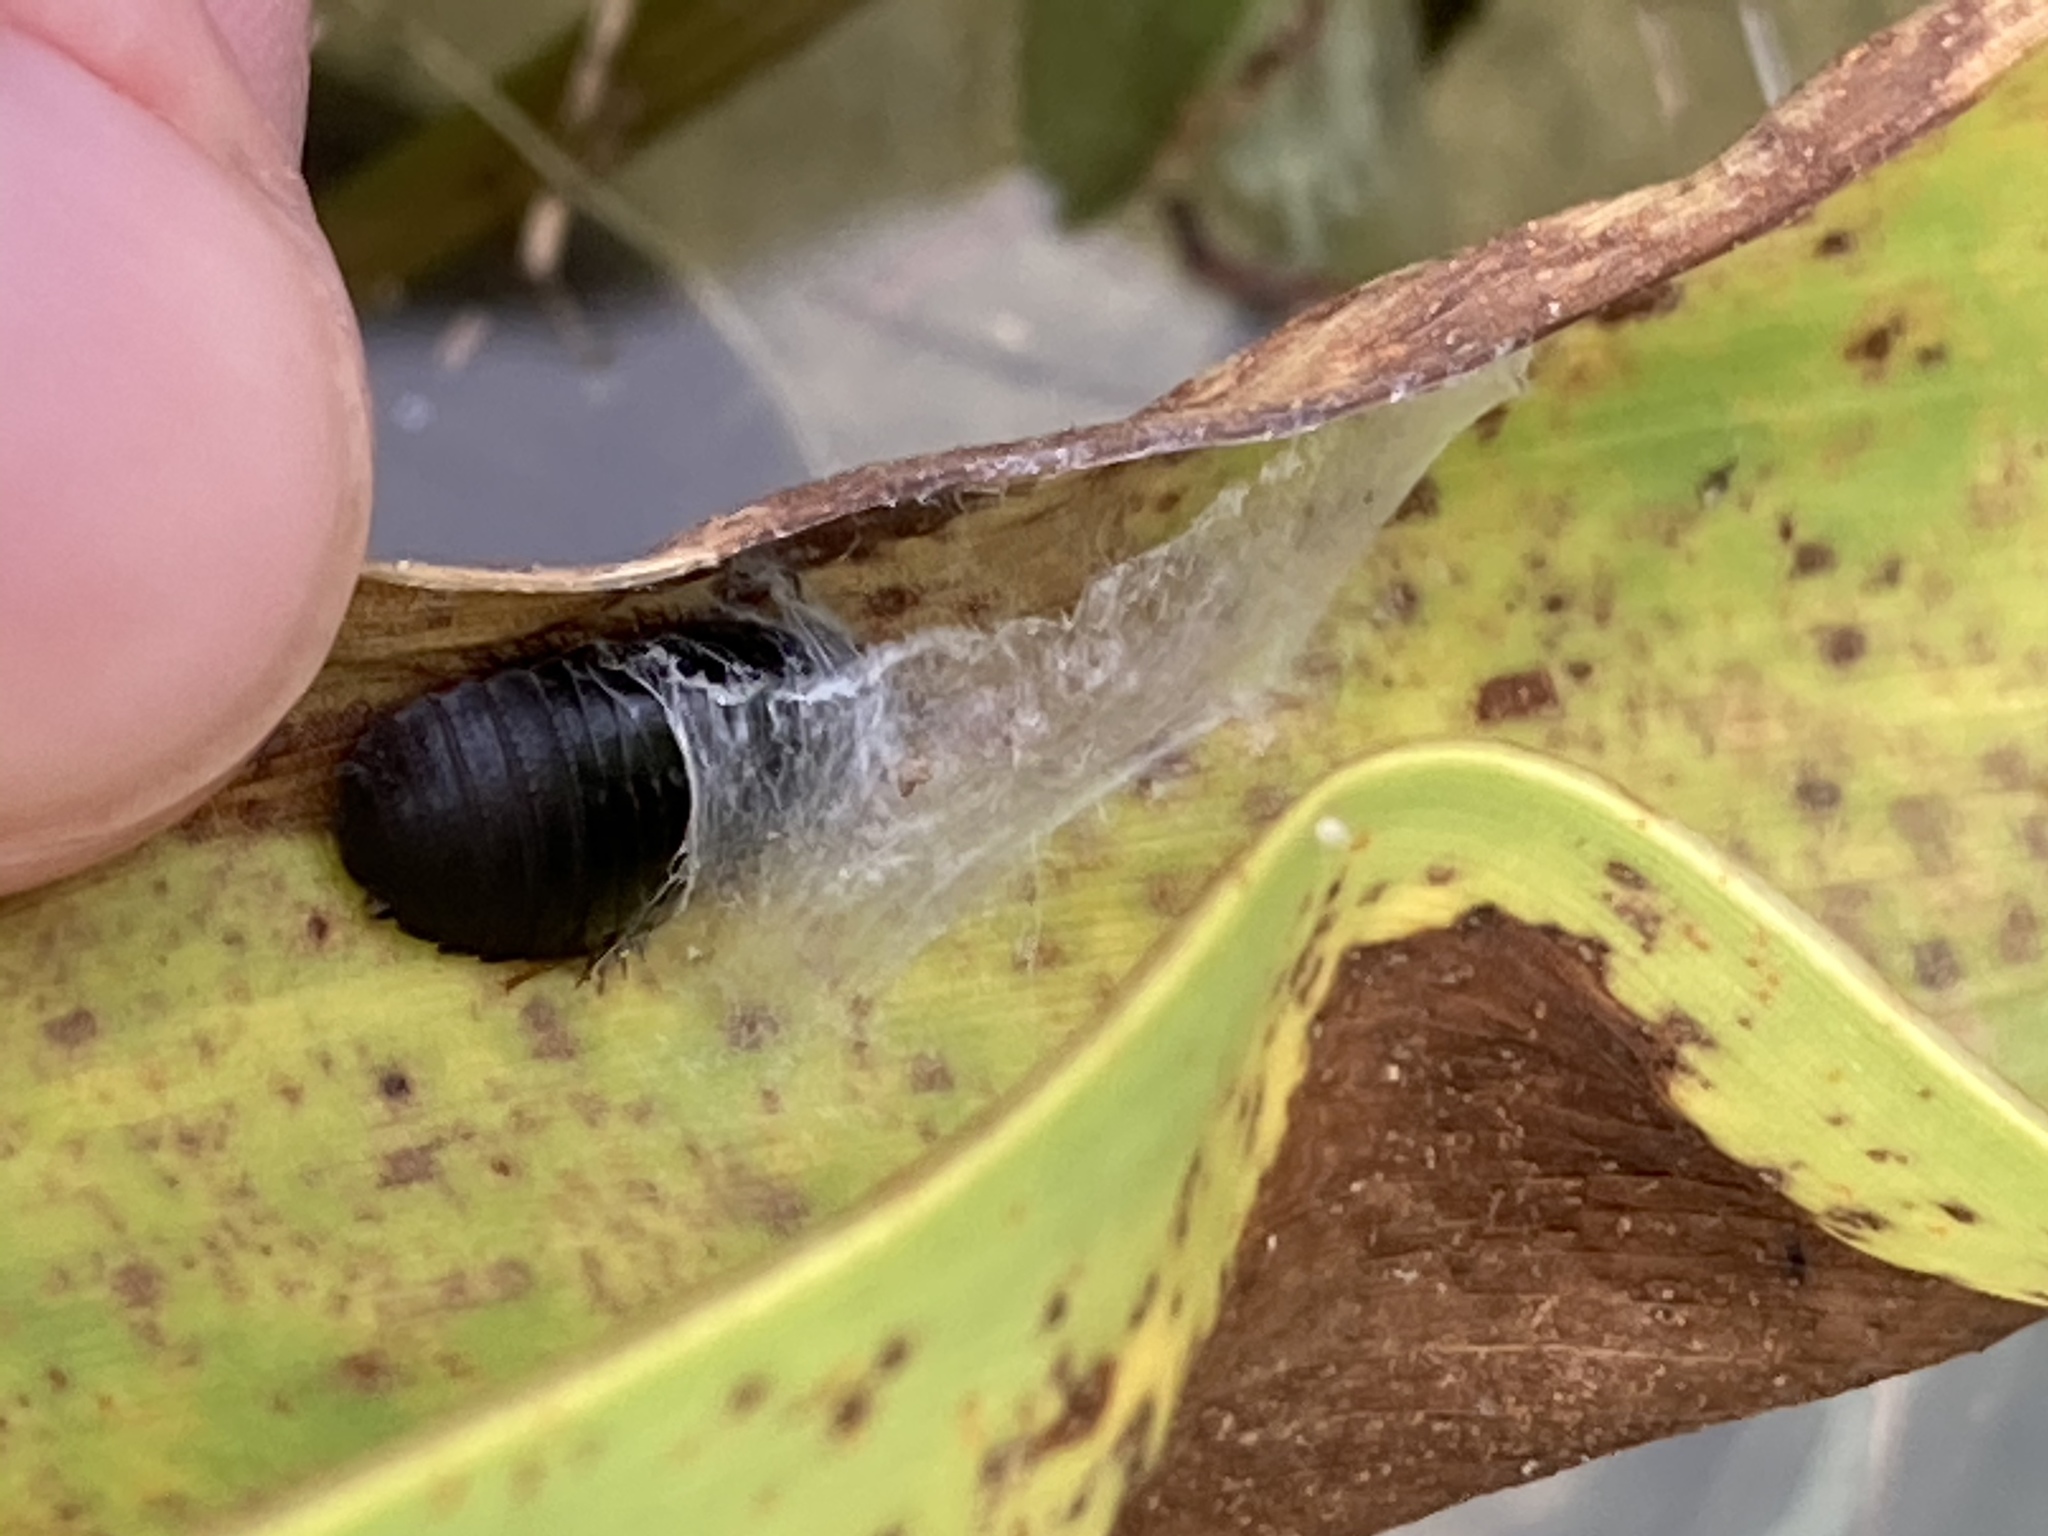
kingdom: Animalia
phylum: Arthropoda
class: Insecta
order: Blattodea
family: Blaberidae
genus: Pycnoscelus
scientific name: Pycnoscelus surinamensis
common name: Surinam cockroach
